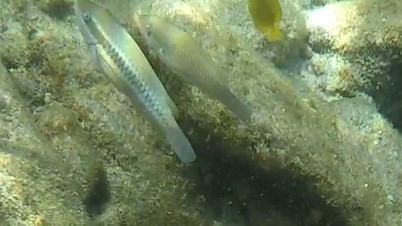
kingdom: Animalia
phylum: Chordata
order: Perciformes
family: Scaridae
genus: Scarus
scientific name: Scarus iseri
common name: Striped parrotfish
